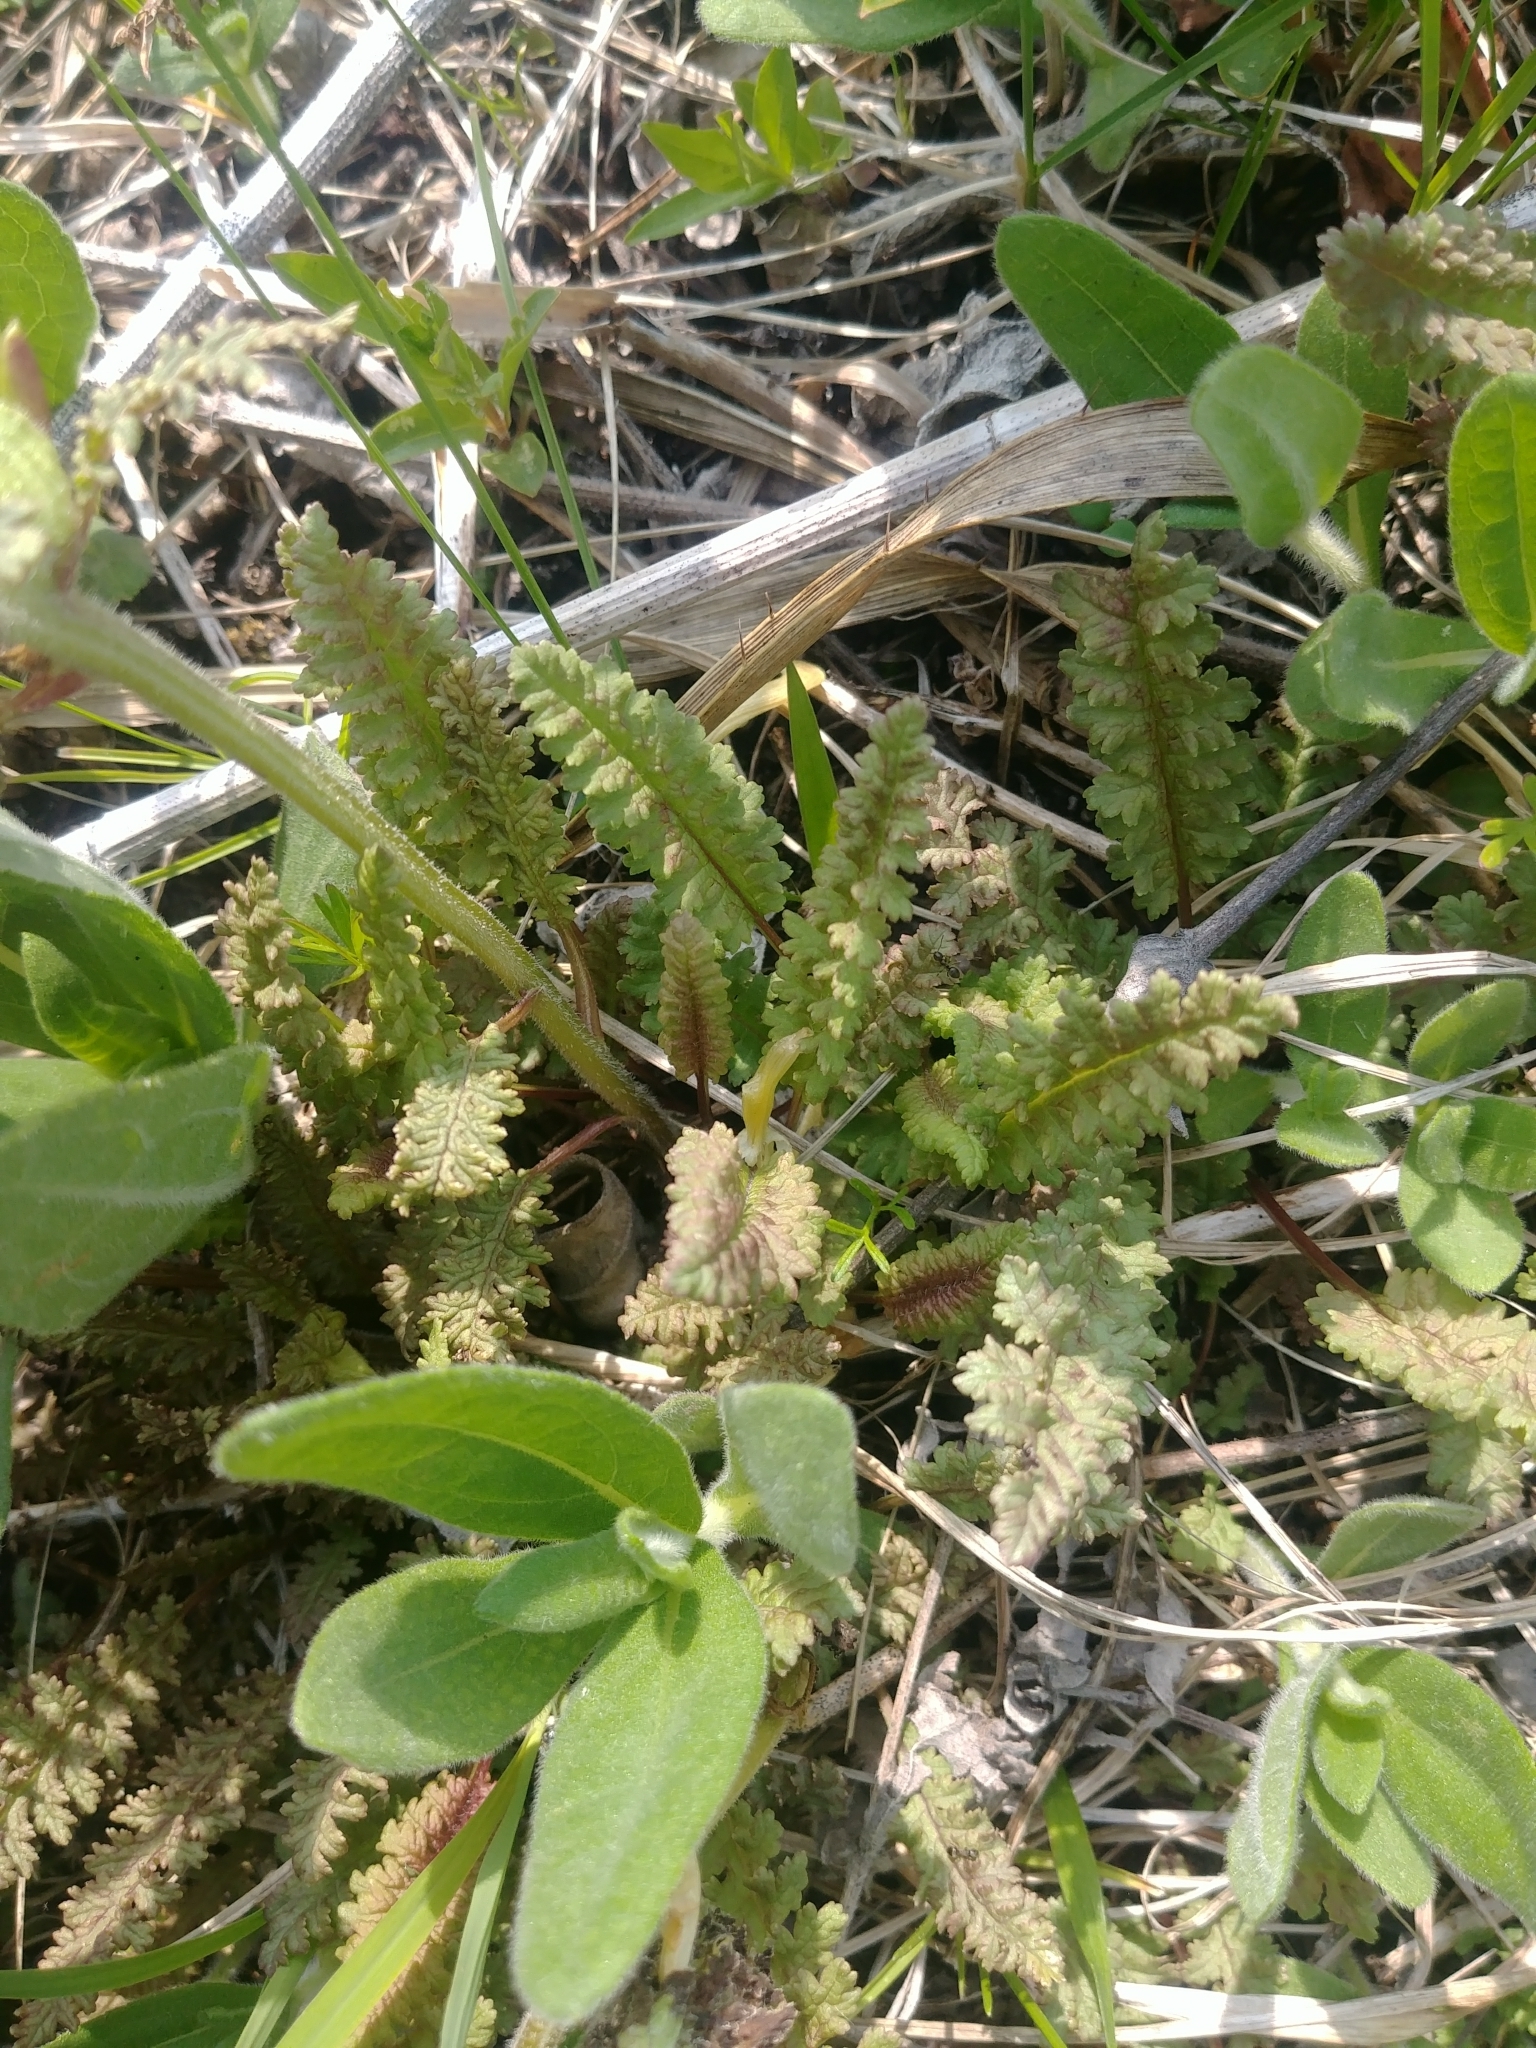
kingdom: Plantae
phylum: Tracheophyta
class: Magnoliopsida
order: Lamiales
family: Orobanchaceae
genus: Pedicularis
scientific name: Pedicularis canadensis
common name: Early lousewort
